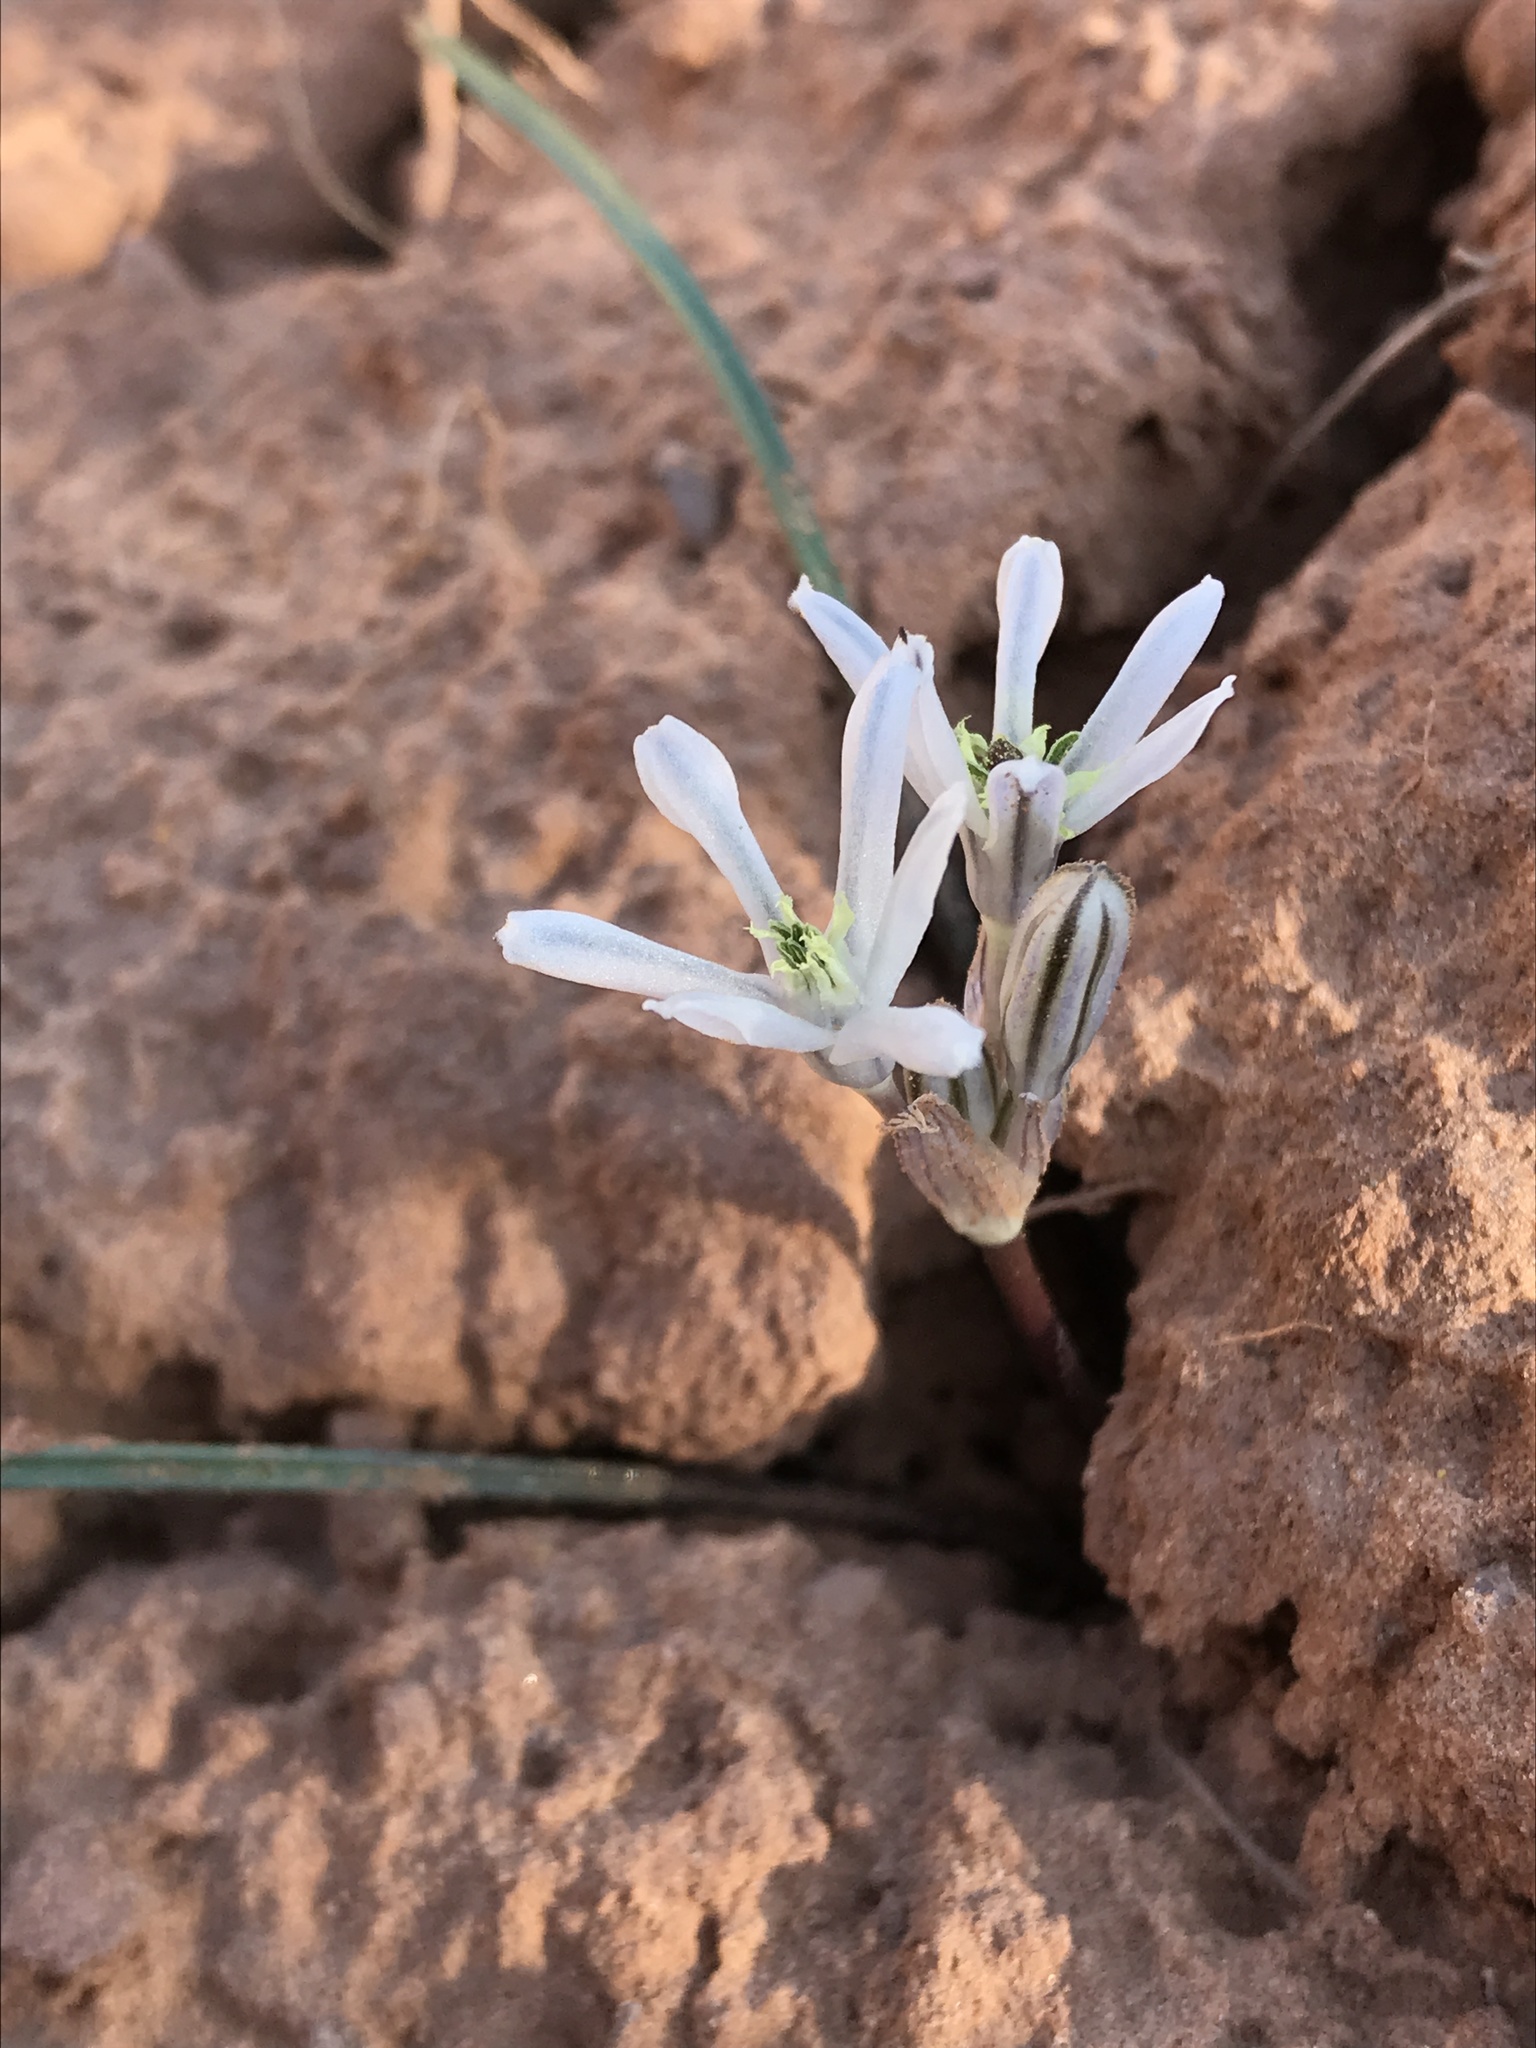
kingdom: Plantae
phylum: Tracheophyta
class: Liliopsida
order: Asparagales
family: Asparagaceae
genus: Androstephium
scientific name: Androstephium breviflorum
